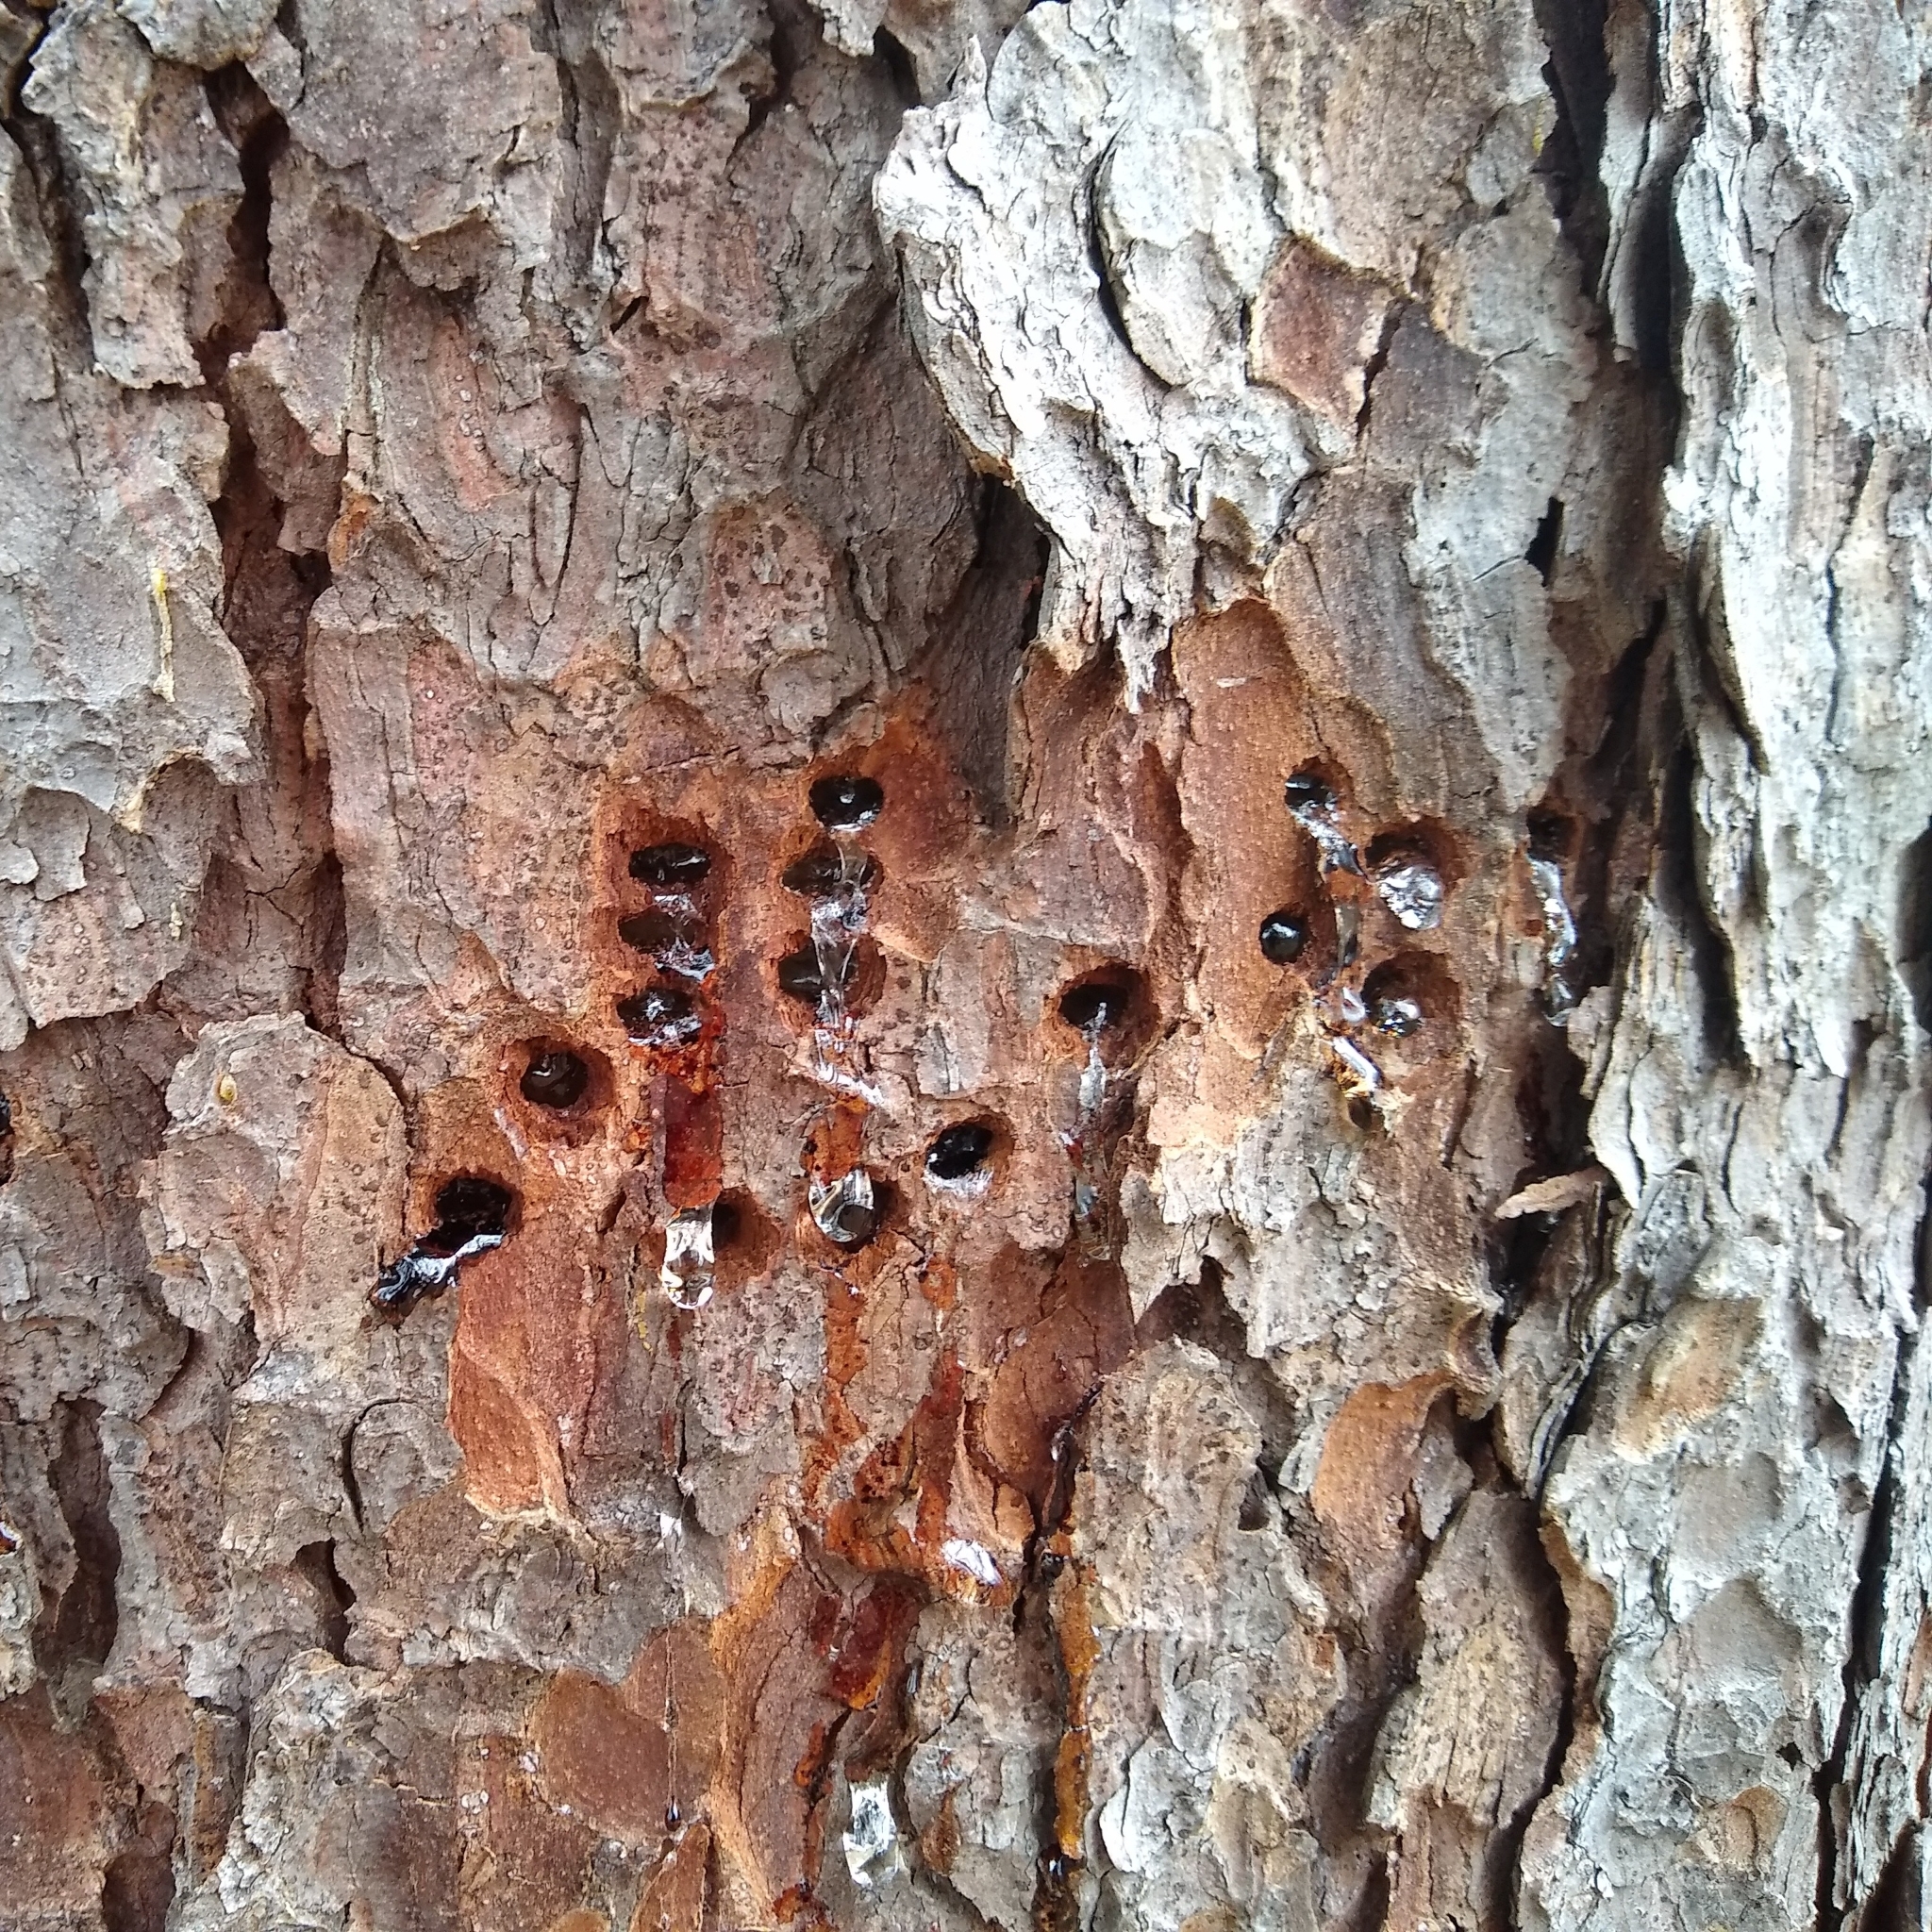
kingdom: Animalia
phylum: Chordata
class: Aves
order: Piciformes
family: Picidae
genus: Sphyrapicus
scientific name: Sphyrapicus varius
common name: Yellow-bellied sapsucker
